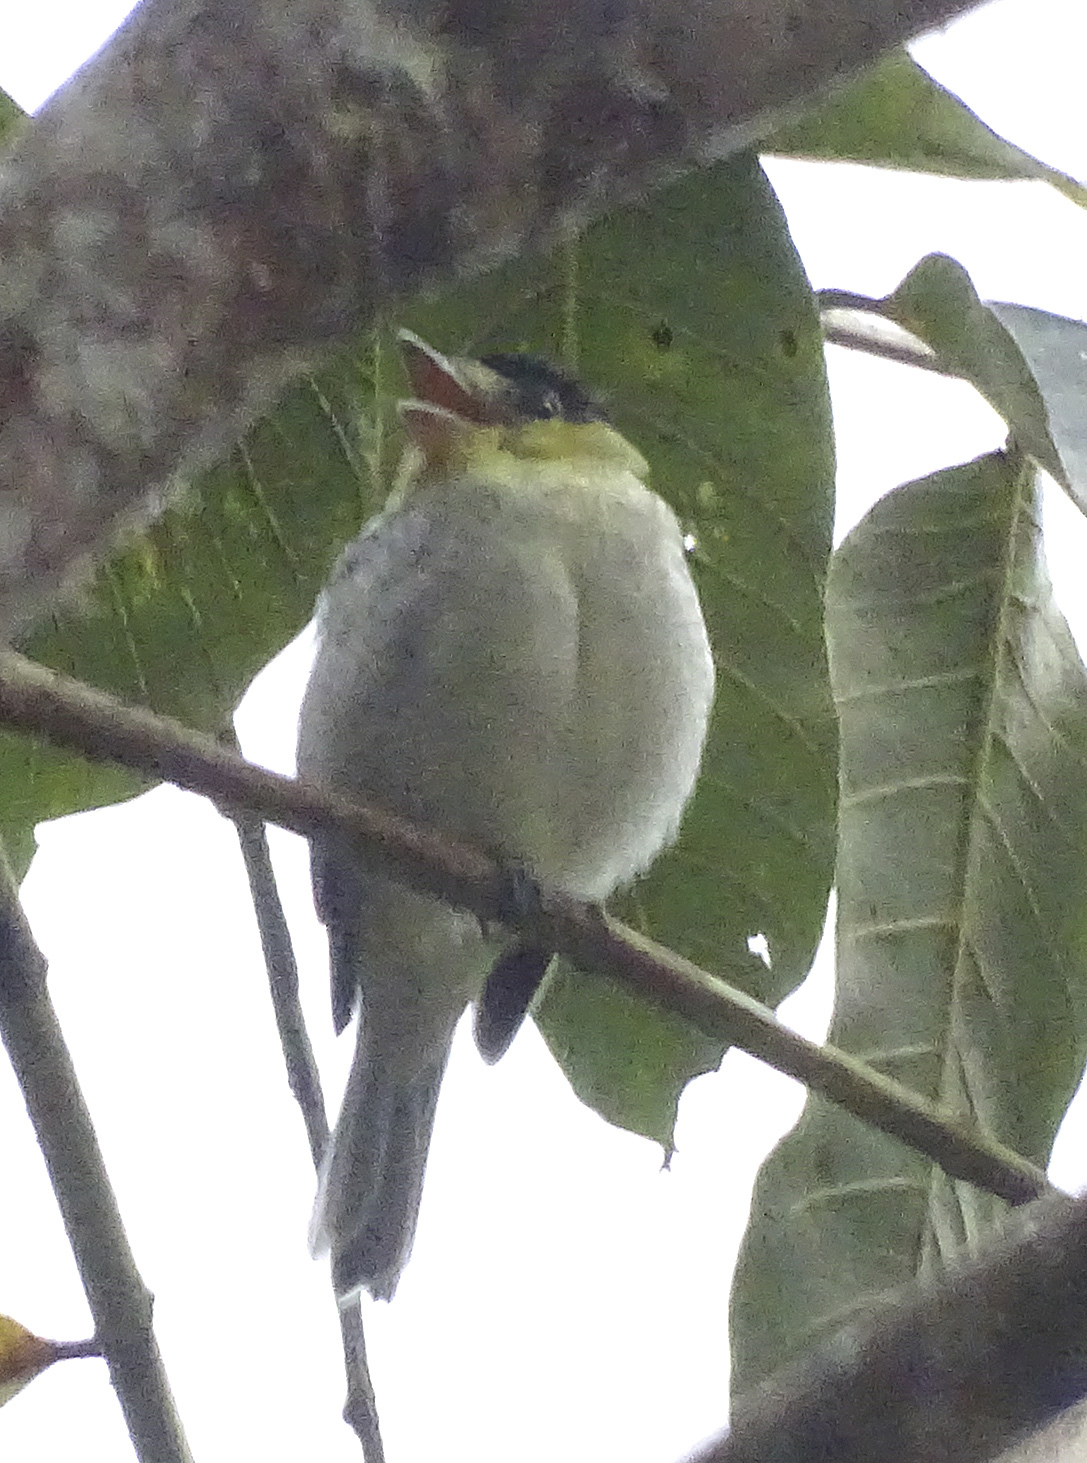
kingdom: Animalia
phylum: Chordata
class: Aves
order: Passeriformes
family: Cotingidae
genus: Pachyramphus
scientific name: Pachyramphus versicolor
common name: Barred becard
